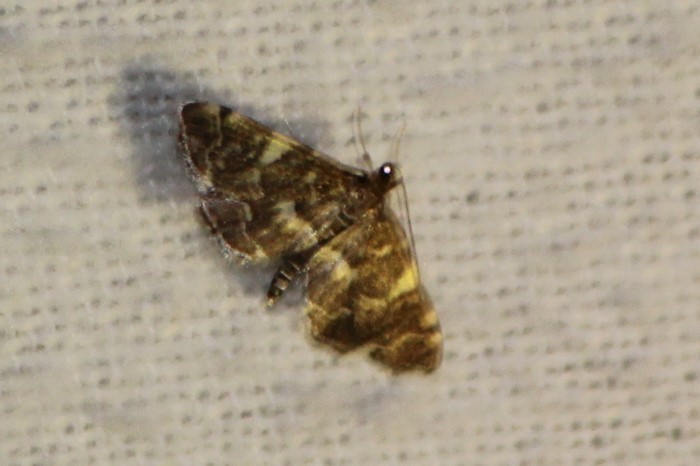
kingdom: Animalia
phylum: Arthropoda
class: Insecta
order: Lepidoptera
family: Crambidae
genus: Anageshna
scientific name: Anageshna primordialis
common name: Yellow-spotted webworm moth
